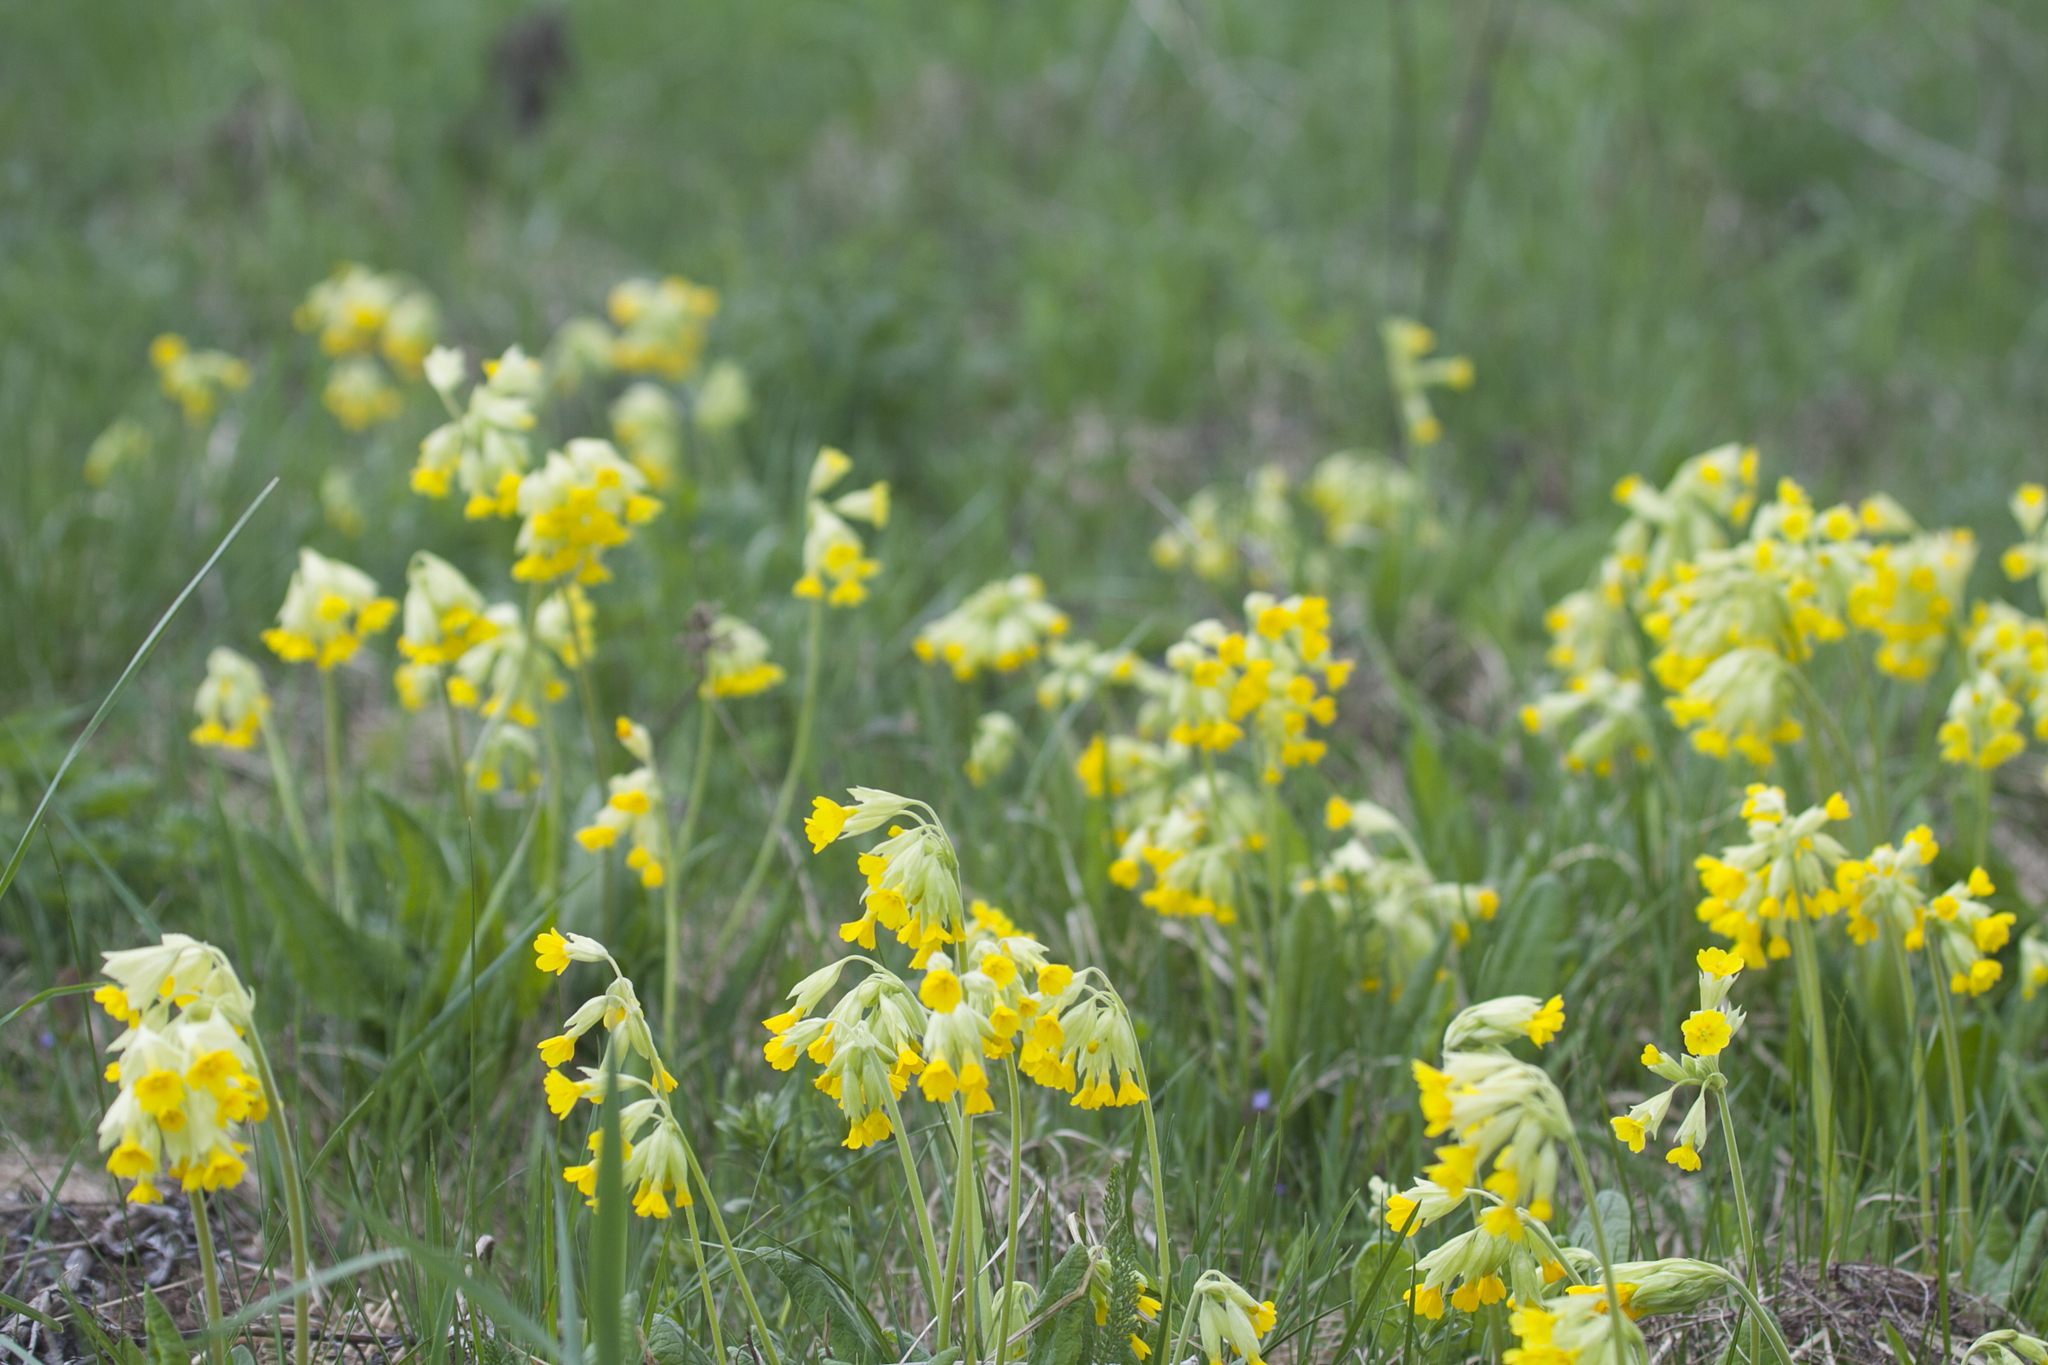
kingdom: Plantae
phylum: Tracheophyta
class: Magnoliopsida
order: Ericales
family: Primulaceae
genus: Primula
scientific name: Primula veris
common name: Cowslip
